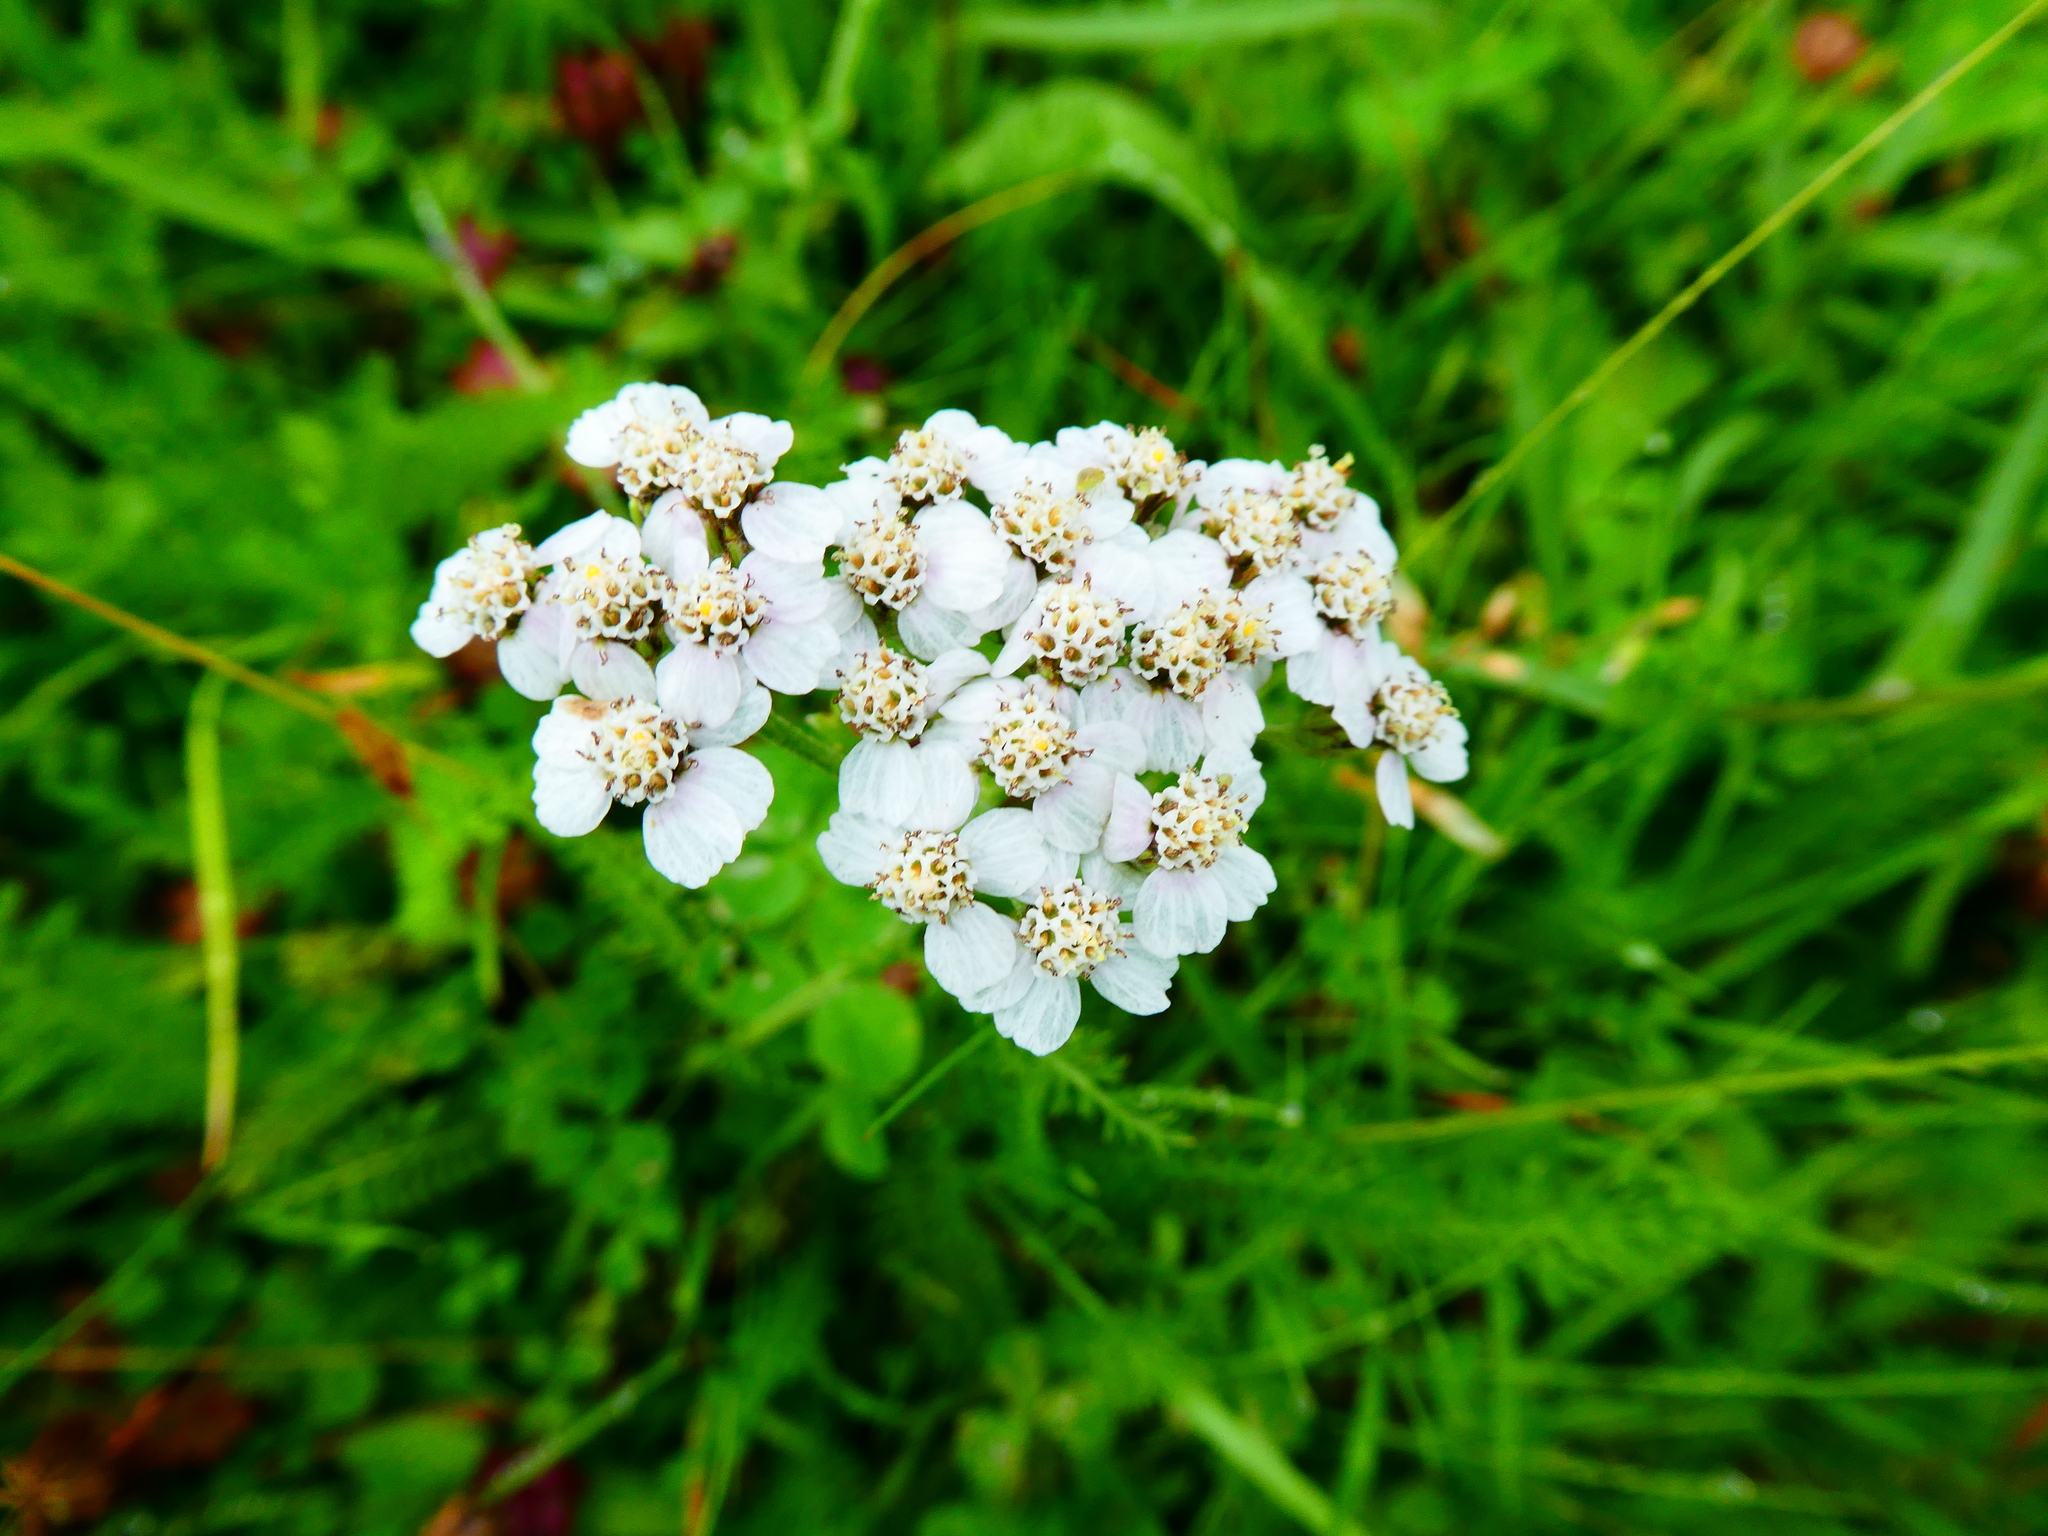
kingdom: Plantae
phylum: Tracheophyta
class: Magnoliopsida
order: Asterales
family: Asteraceae
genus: Achillea
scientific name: Achillea millefolium
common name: Yarrow
